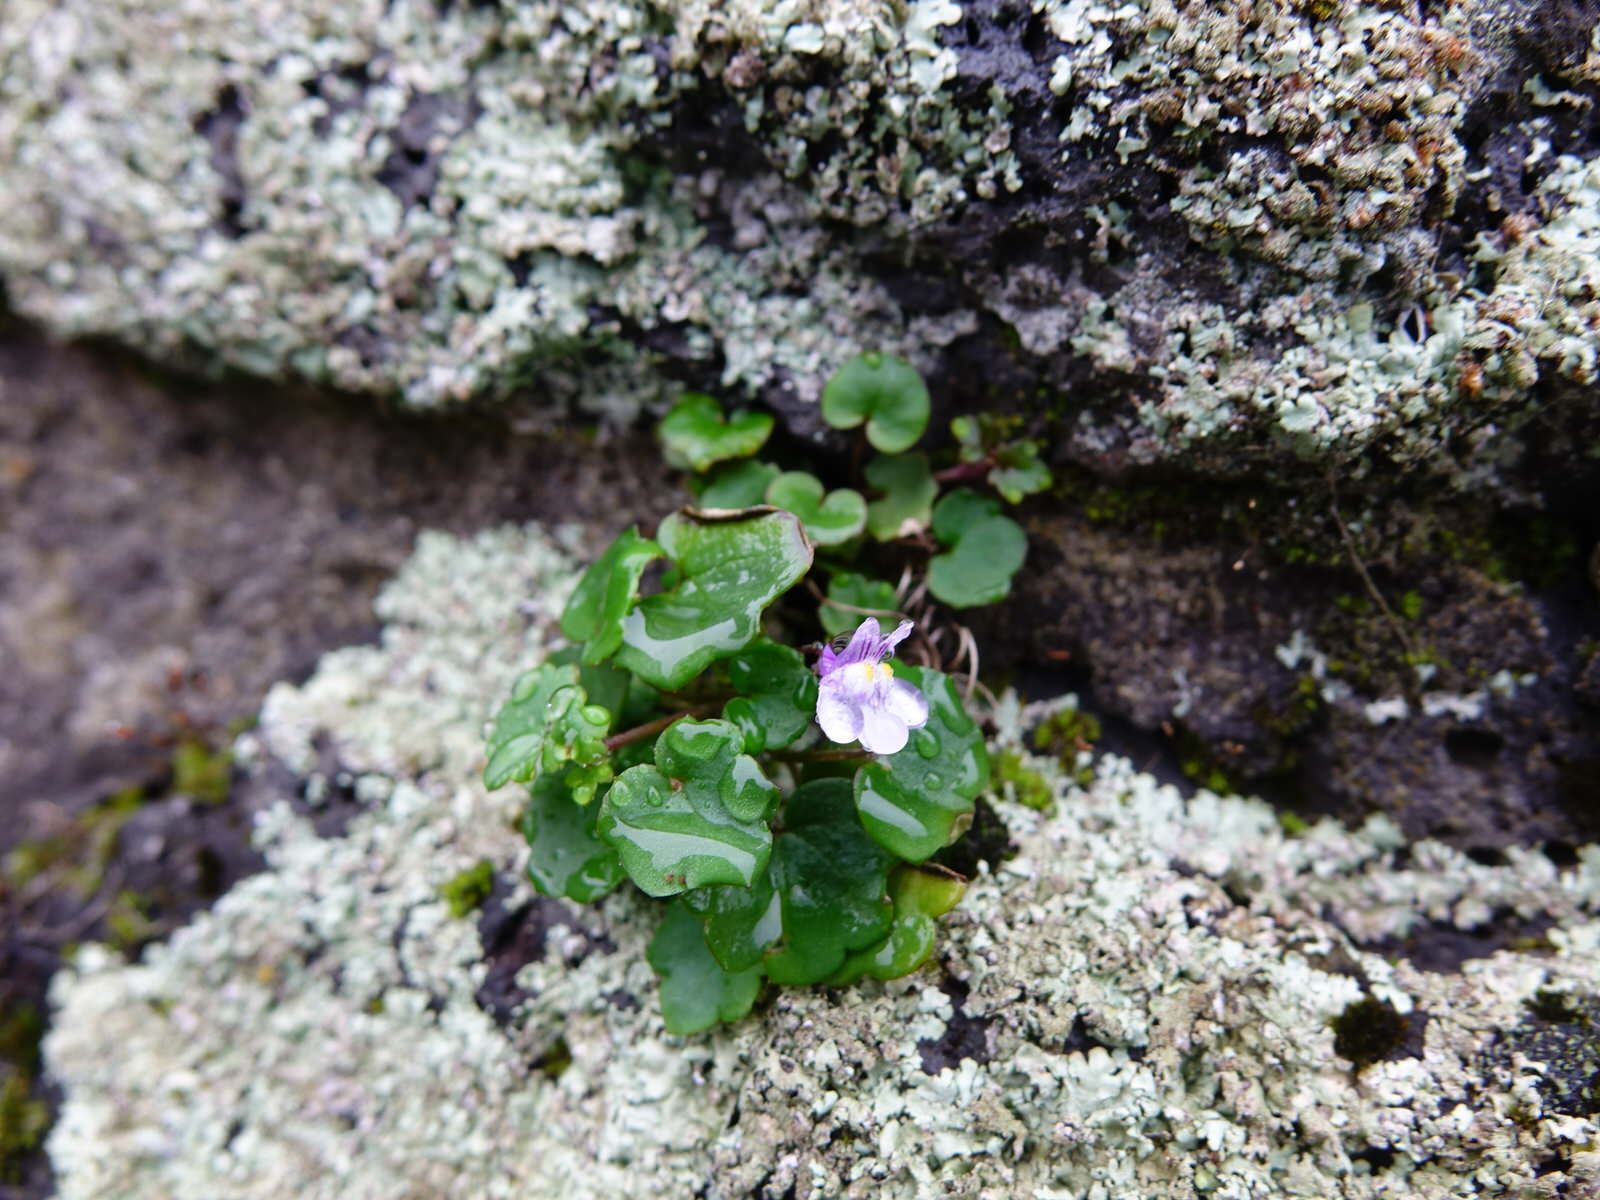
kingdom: Plantae
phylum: Tracheophyta
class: Magnoliopsida
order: Lamiales
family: Plantaginaceae
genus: Cymbalaria
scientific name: Cymbalaria muralis
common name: Ivy-leaved toadflax
